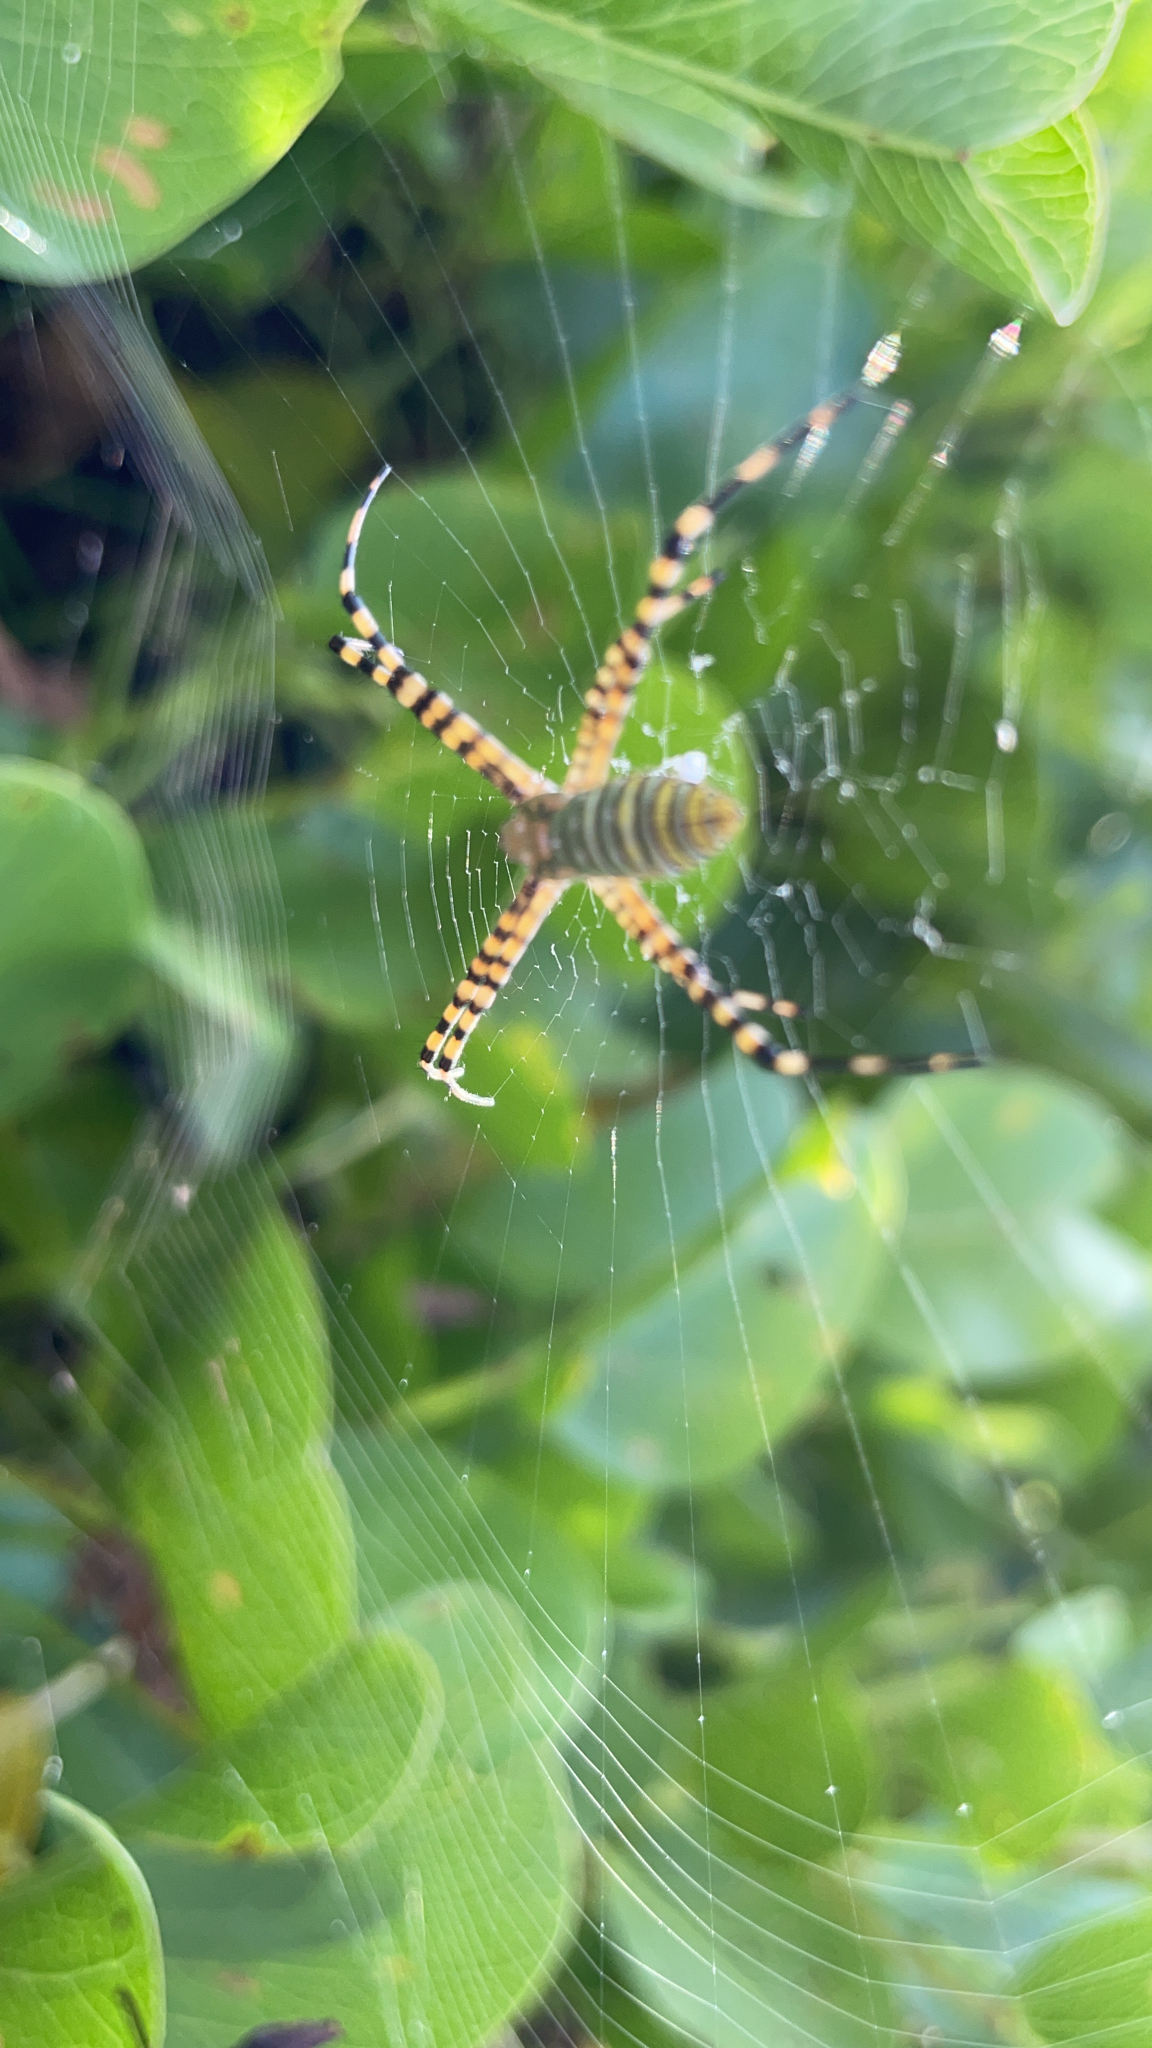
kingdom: Animalia
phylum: Arthropoda
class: Arachnida
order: Araneae
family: Araneidae
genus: Argiope
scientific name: Argiope trifasciata
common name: Banded garden spider
